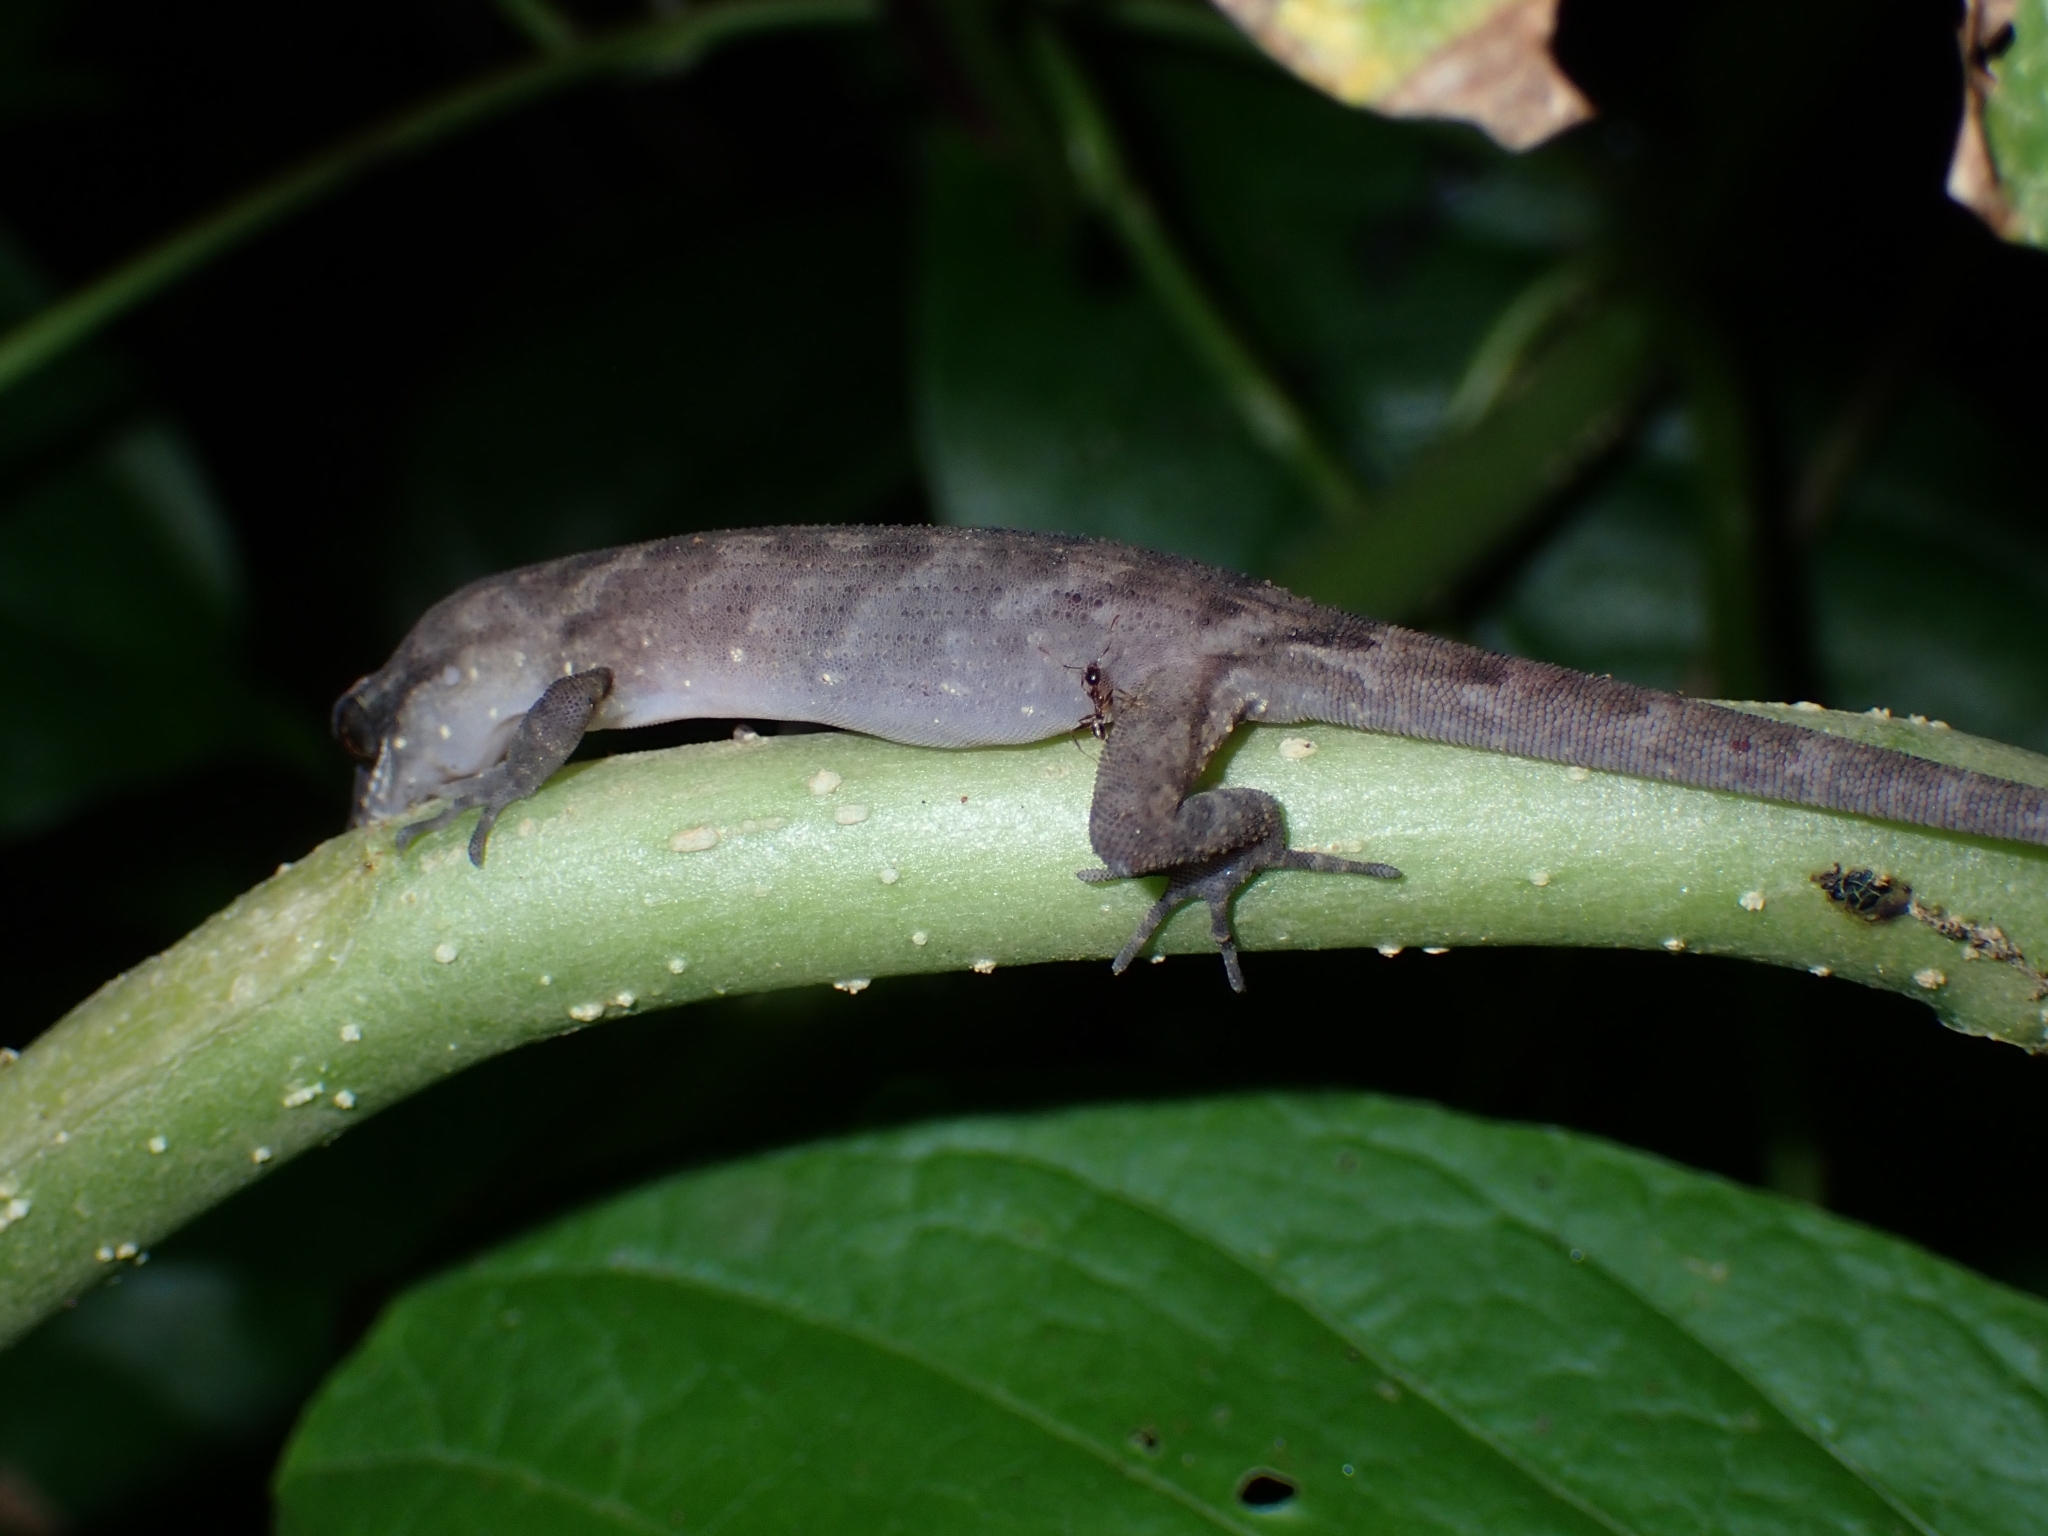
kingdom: Animalia
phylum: Chordata
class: Squamata
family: Gekkonidae
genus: Nactus
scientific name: Nactus pelagicus
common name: Pelagic gecko
